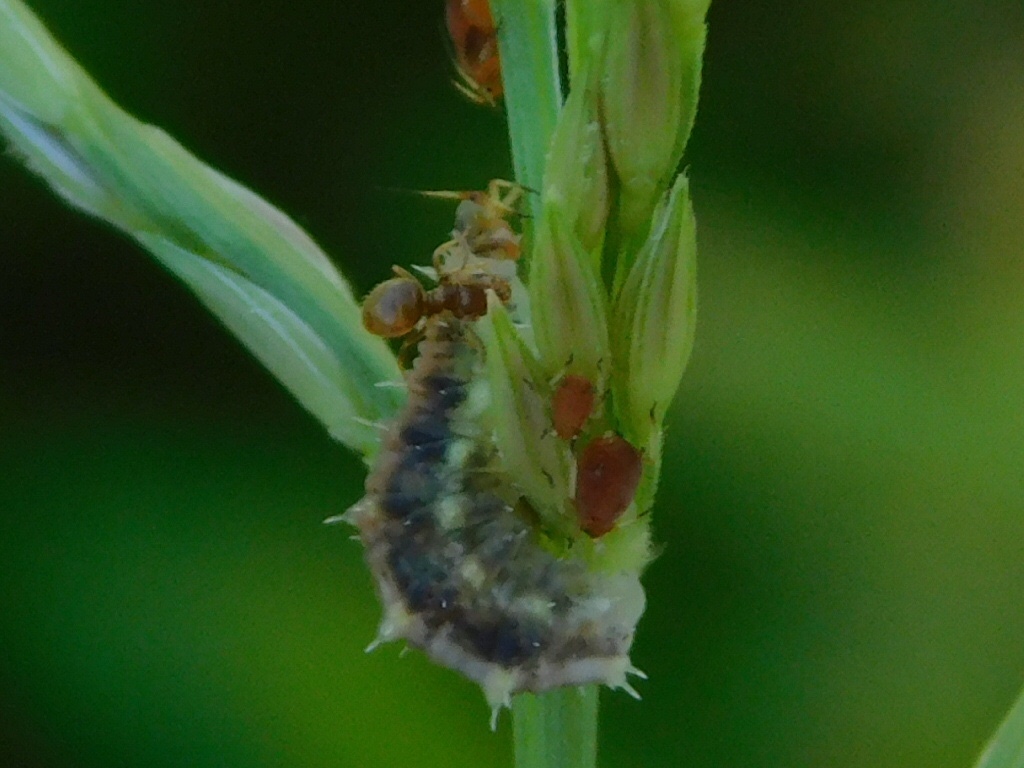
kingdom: Animalia
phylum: Arthropoda
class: Insecta
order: Diptera
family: Syrphidae
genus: Dioprosopa
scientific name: Dioprosopa clavatus
